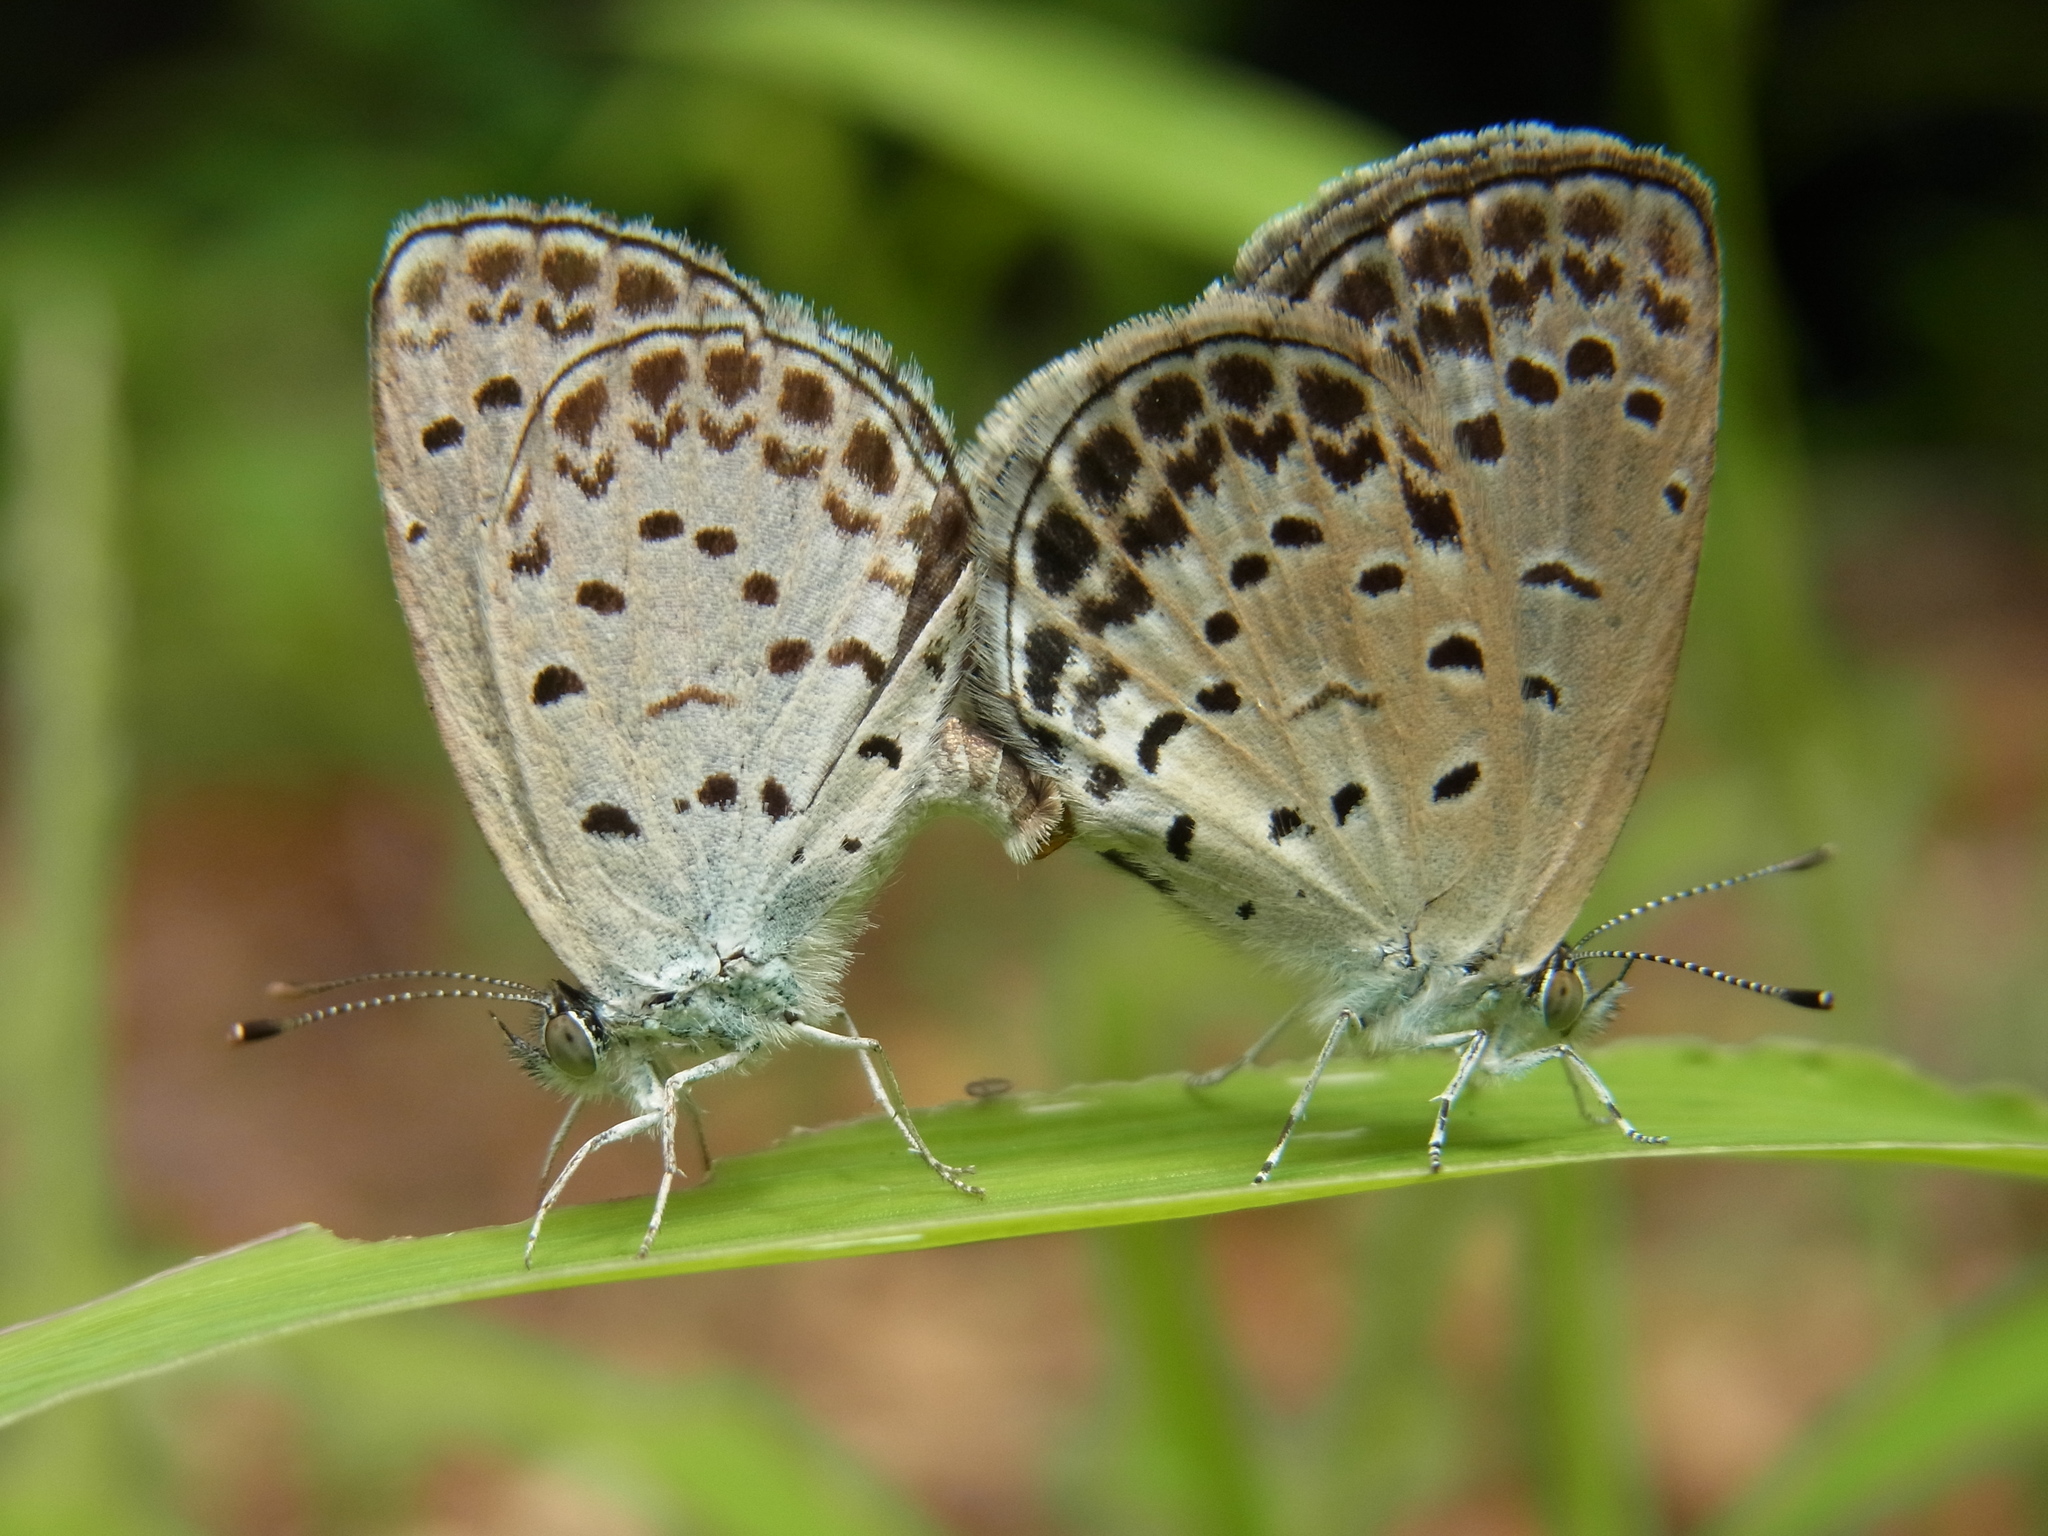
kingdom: Animalia
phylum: Arthropoda
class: Insecta
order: Lepidoptera
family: Lycaenidae
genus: Pseudozizeeria
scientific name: Pseudozizeeria maha
